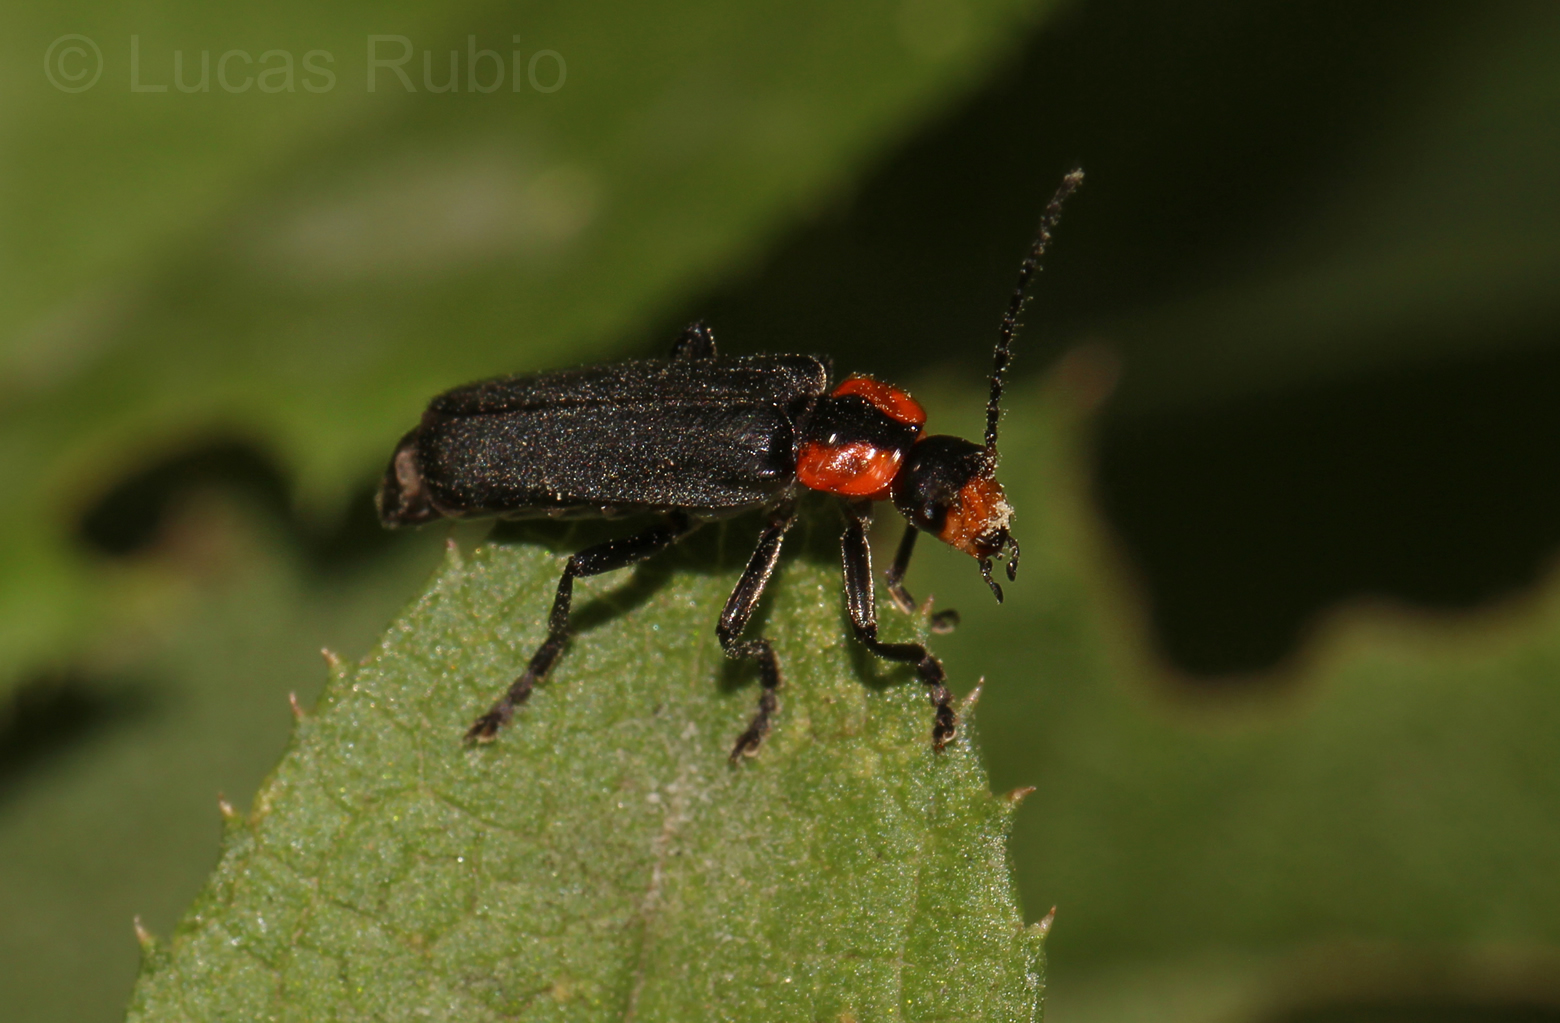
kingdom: Animalia
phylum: Arthropoda
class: Insecta
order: Coleoptera
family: Cantharidae
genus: Discodon
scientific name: Discodon
